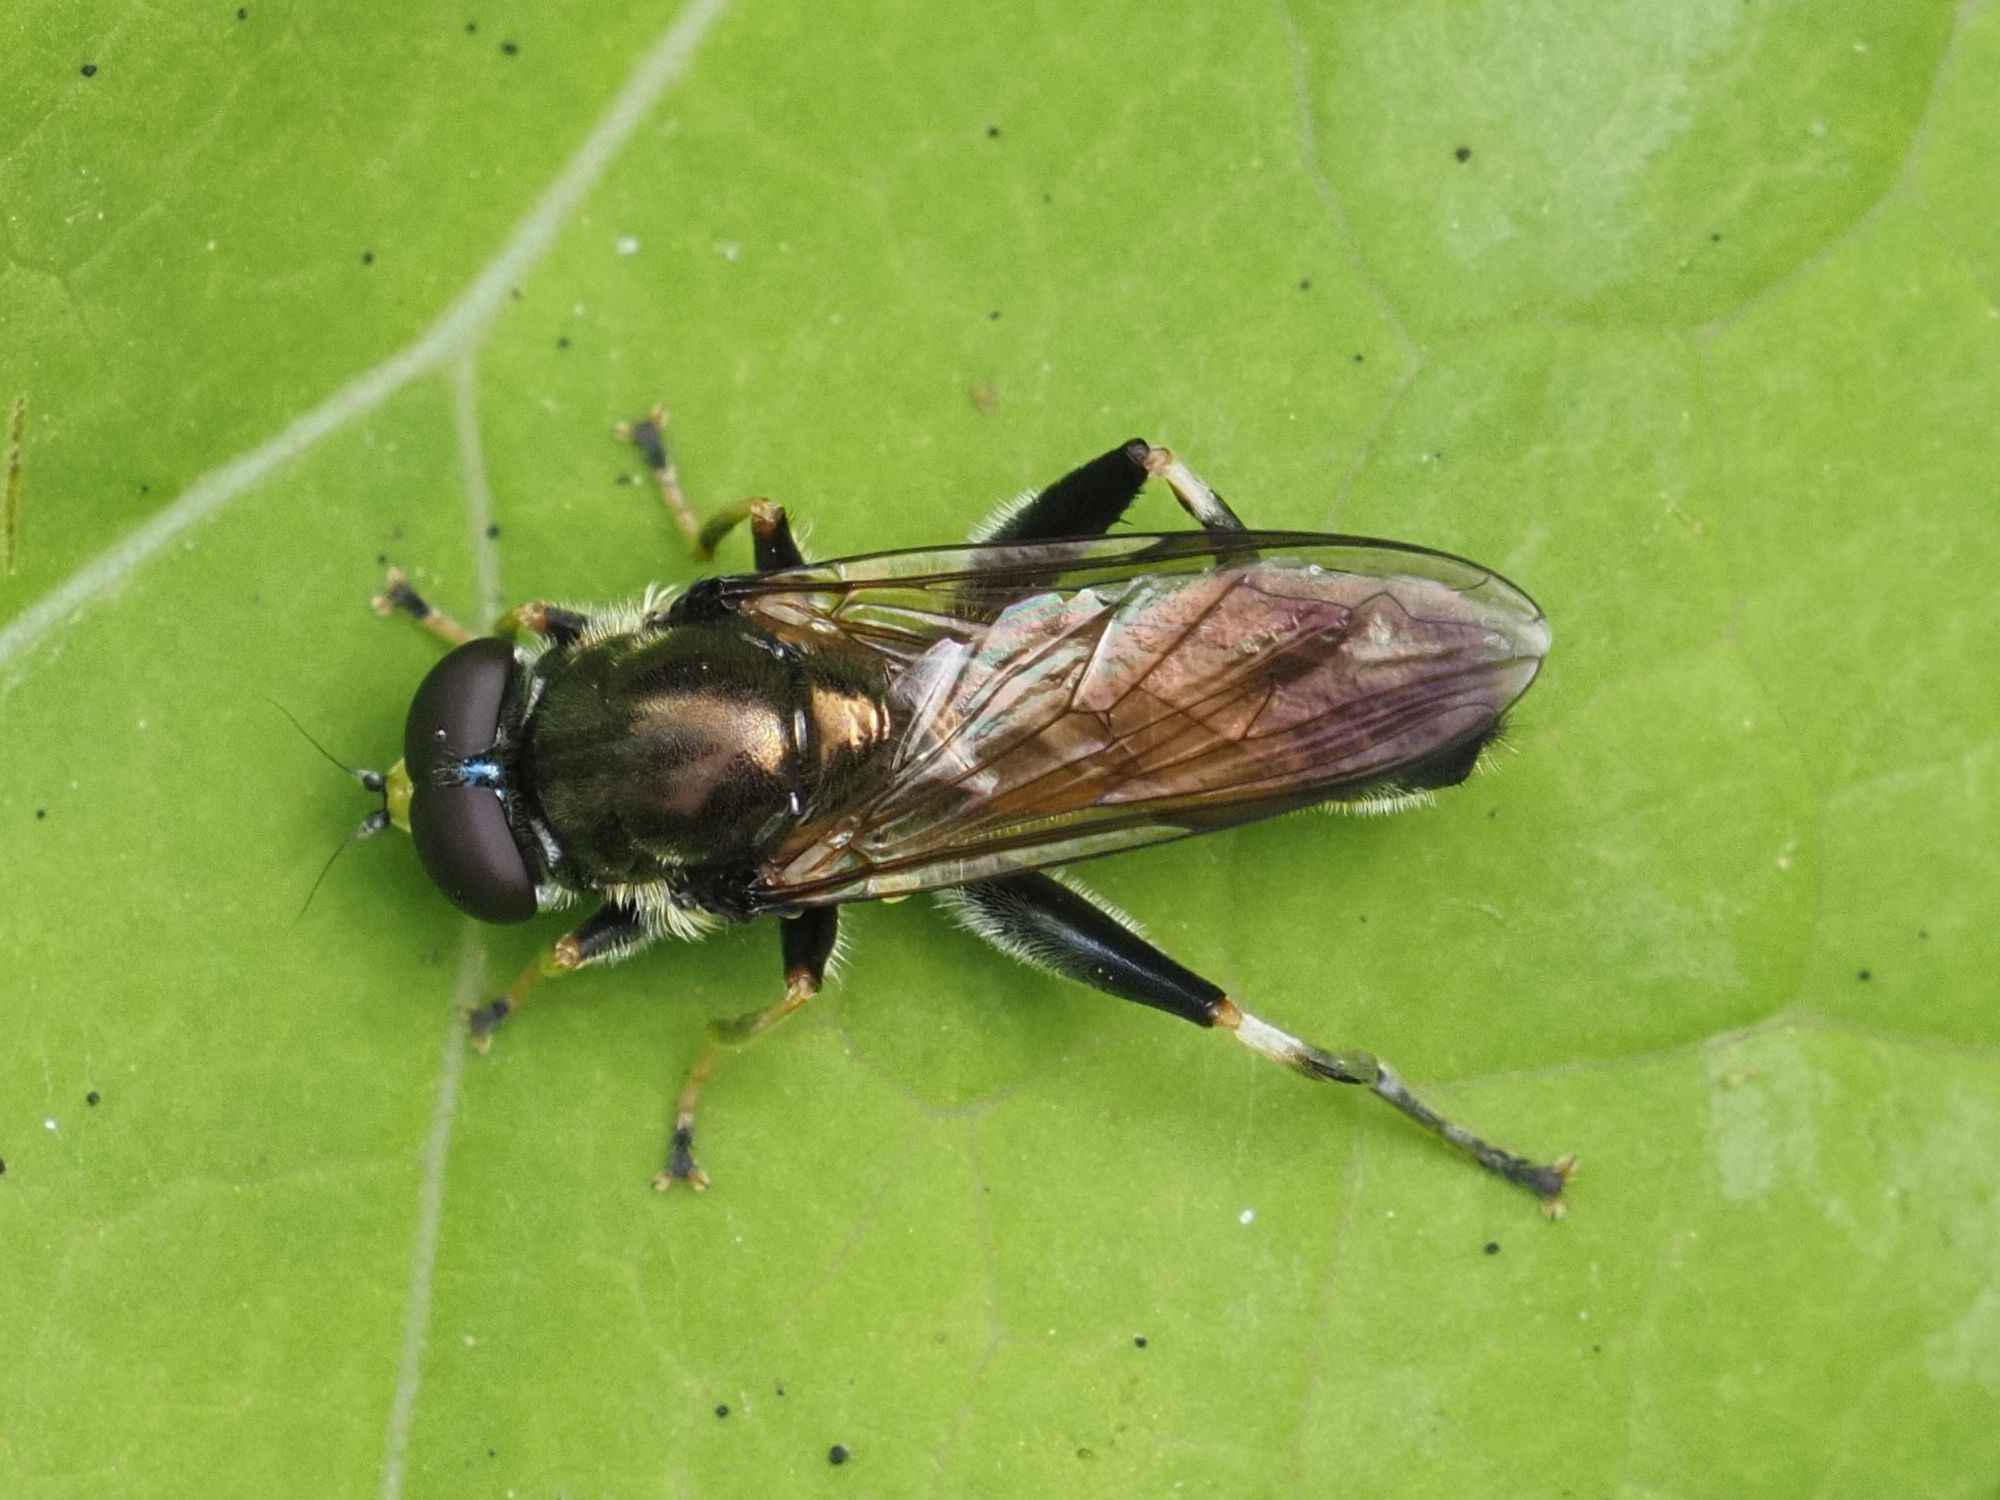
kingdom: Animalia
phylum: Arthropoda
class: Insecta
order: Diptera
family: Syrphidae
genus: Xylota
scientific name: Xylota segnis
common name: Brown-toed forest fly
